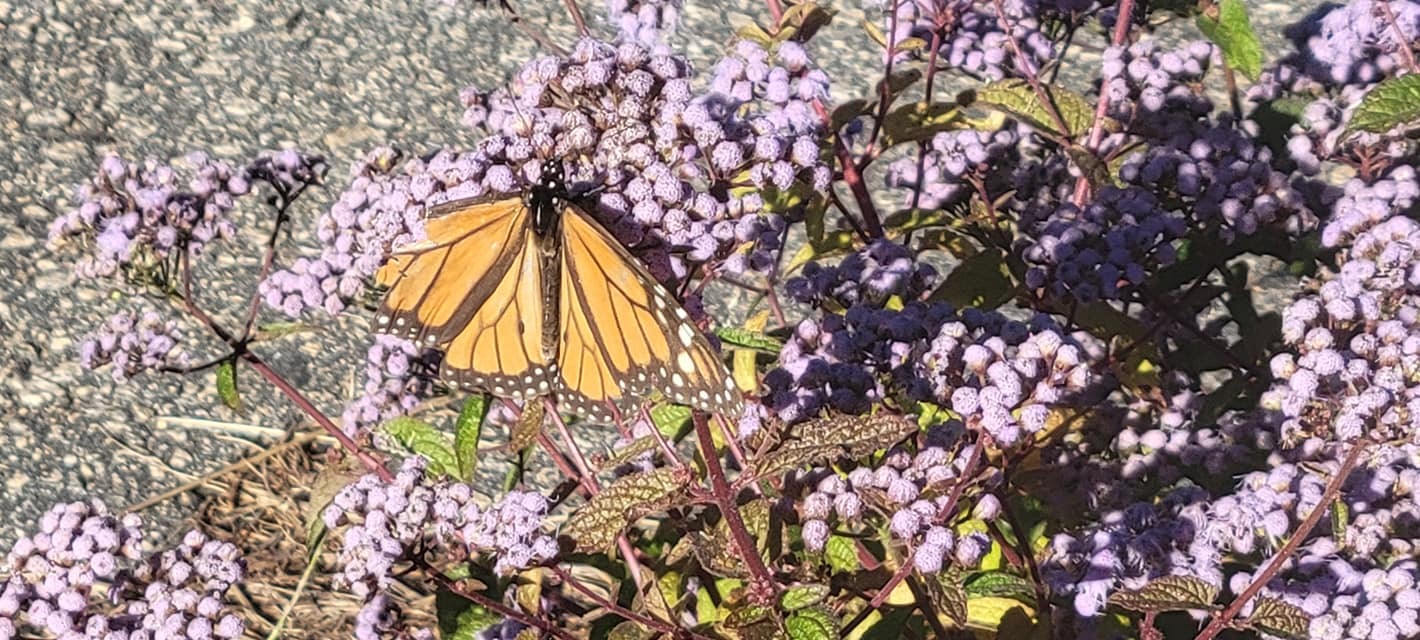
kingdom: Animalia
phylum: Arthropoda
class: Insecta
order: Lepidoptera
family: Nymphalidae
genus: Danaus
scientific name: Danaus plexippus
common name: Monarch
